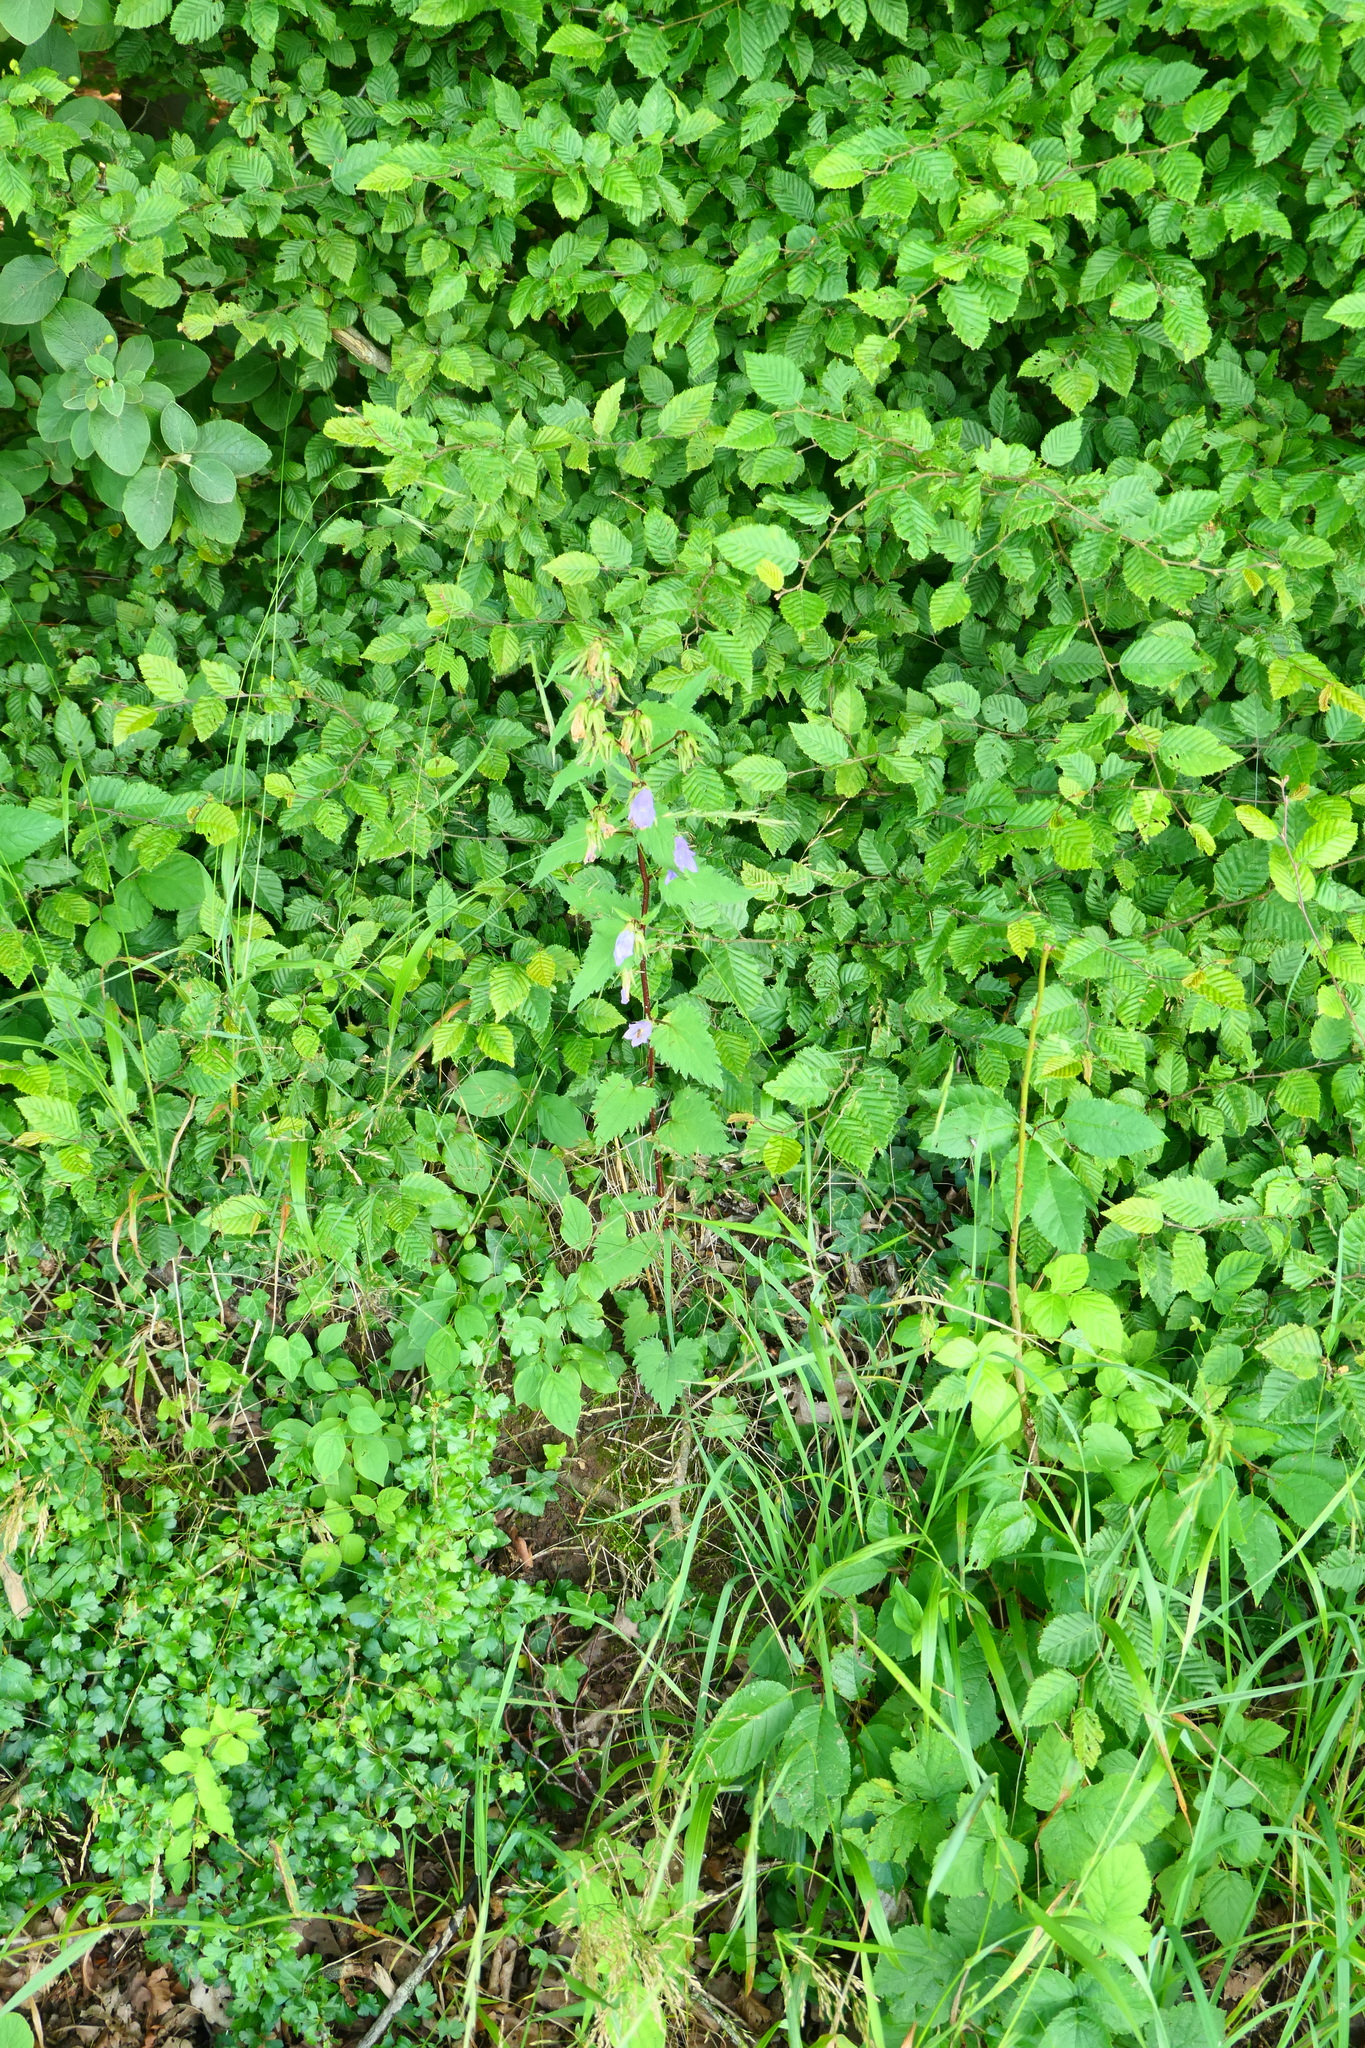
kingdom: Plantae
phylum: Tracheophyta
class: Magnoliopsida
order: Asterales
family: Campanulaceae
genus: Campanula
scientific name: Campanula trachelium
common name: Nettle-leaved bellflower
